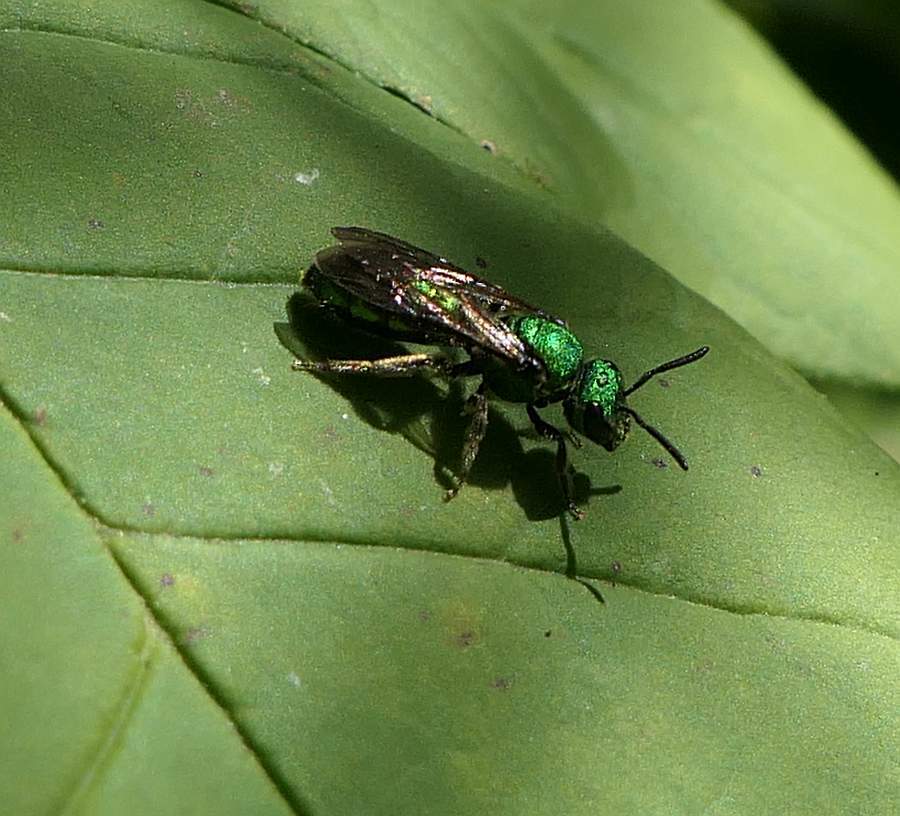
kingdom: Animalia
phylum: Arthropoda
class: Insecta
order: Hymenoptera
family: Halictidae
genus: Augochlora
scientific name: Augochlora pura
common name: Pure green sweat bee
